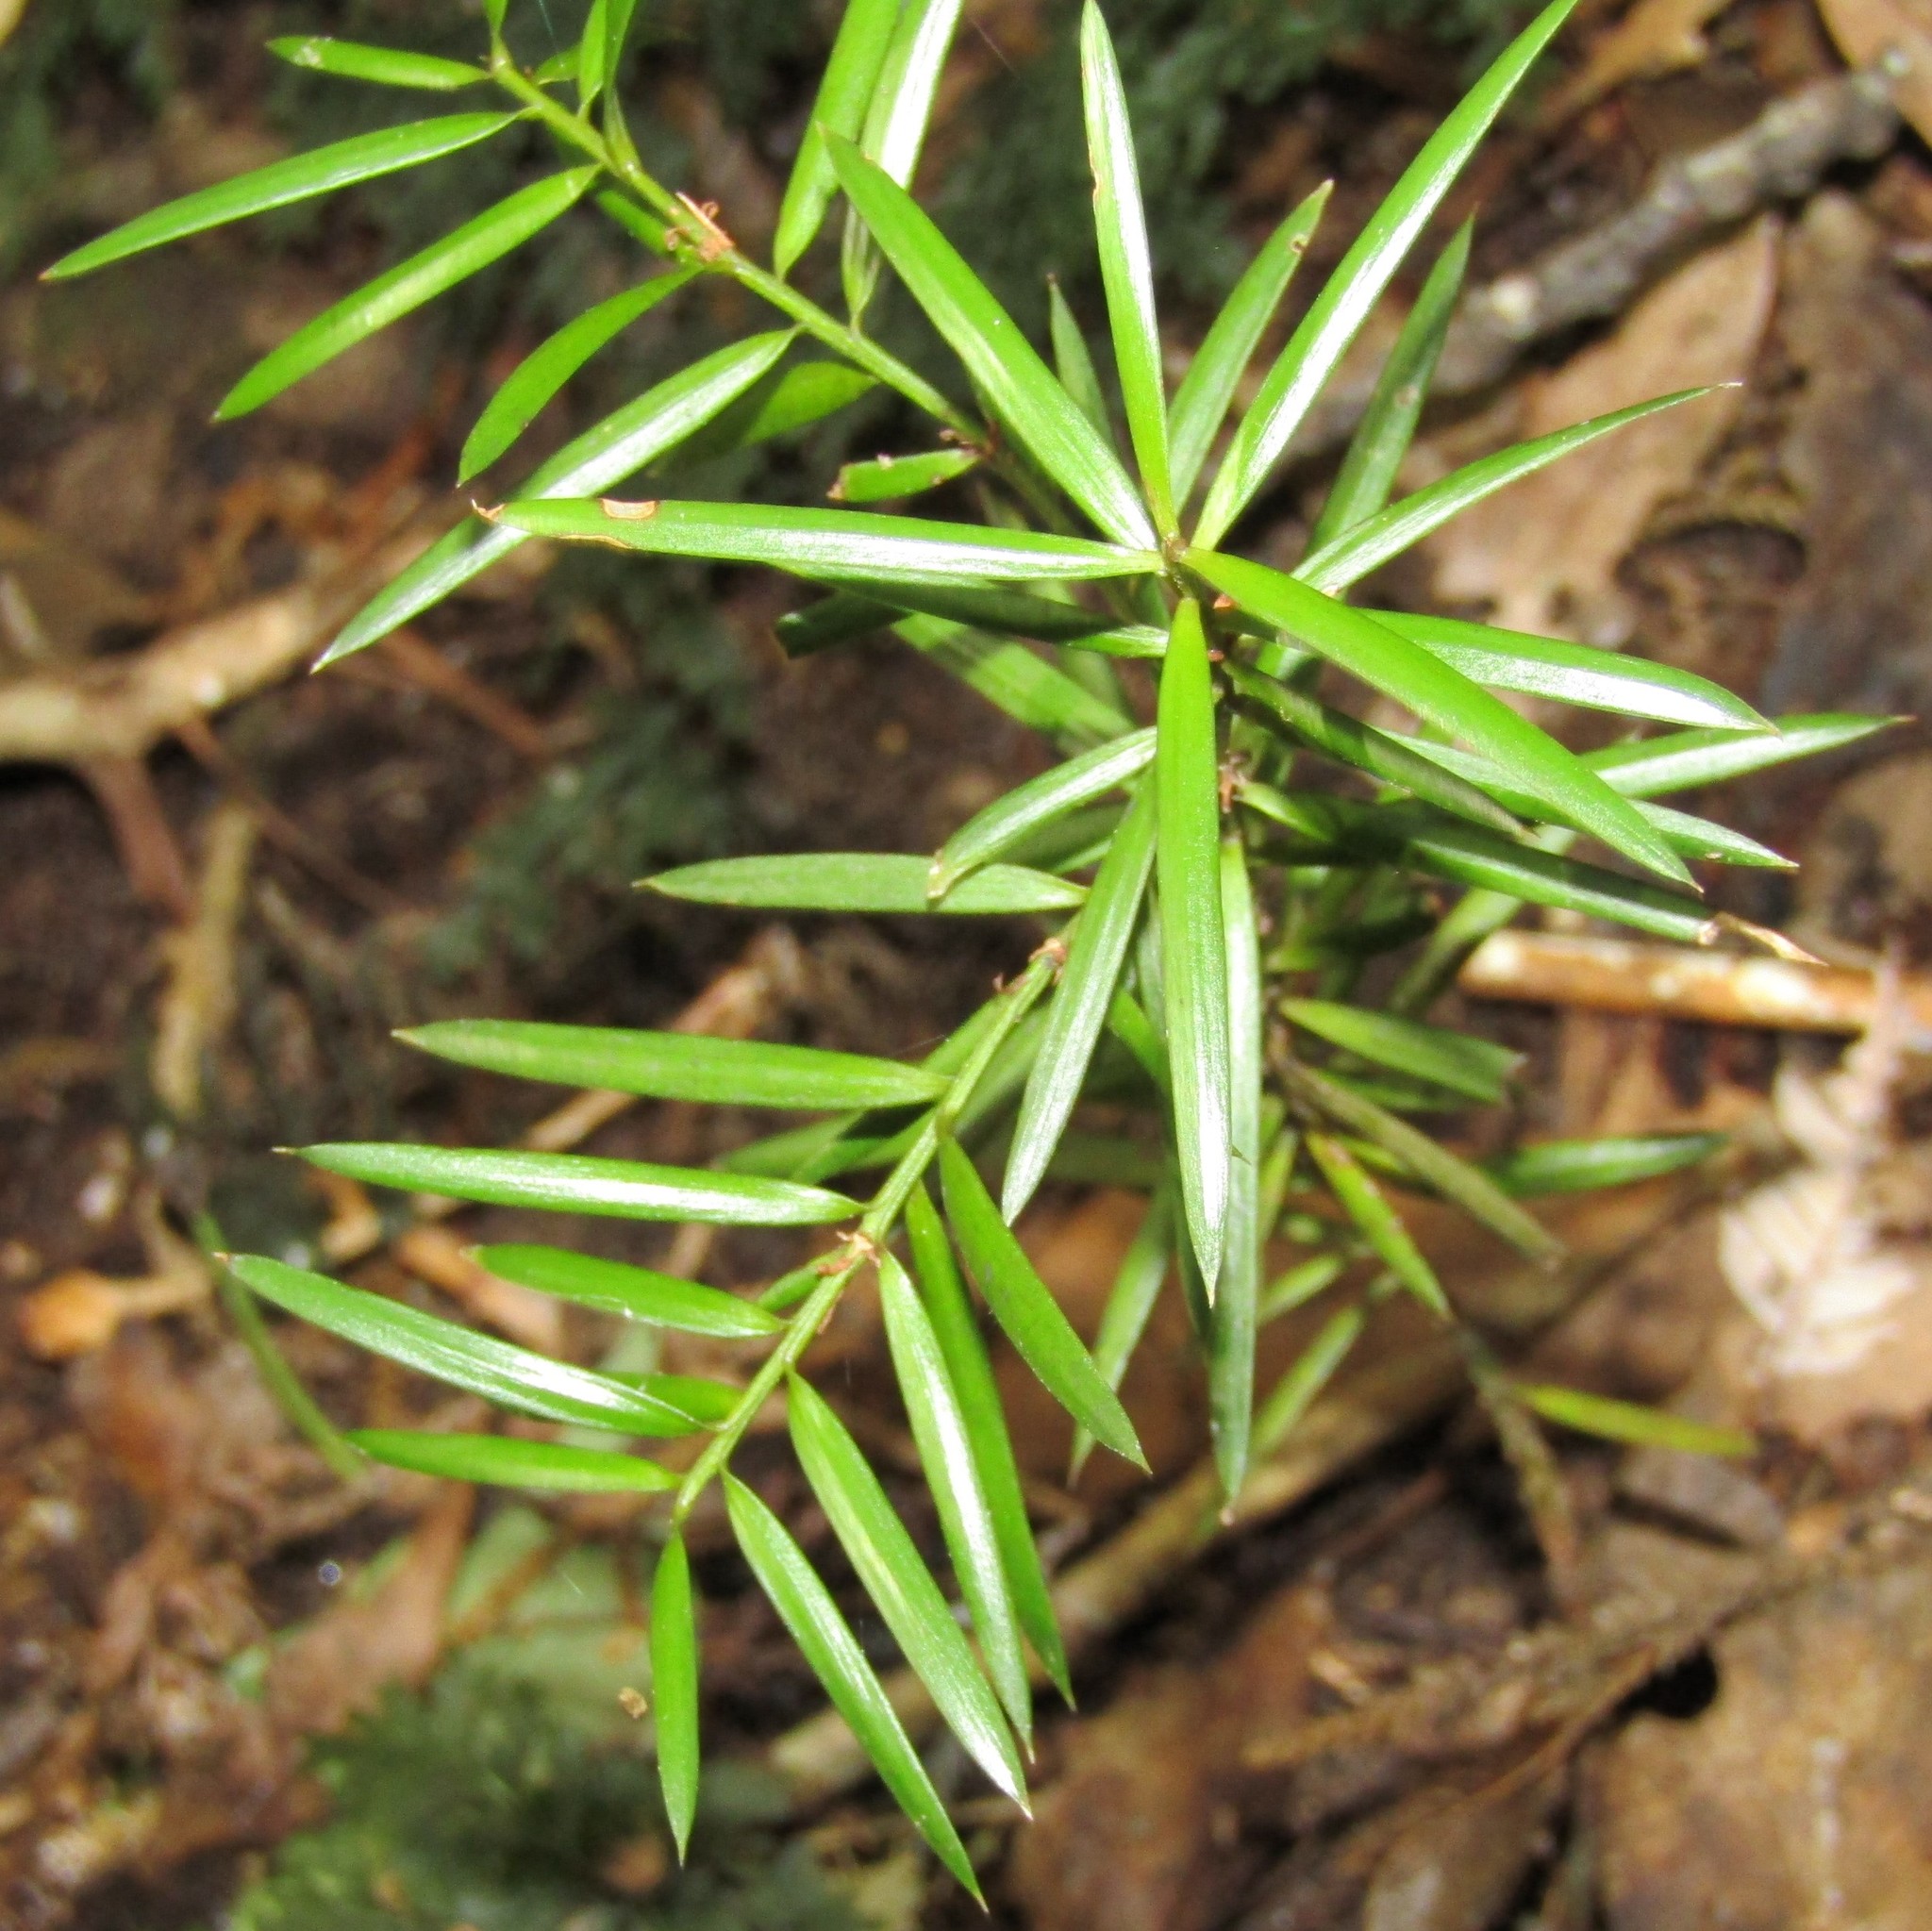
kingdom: Plantae
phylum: Tracheophyta
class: Pinopsida
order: Pinales
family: Podocarpaceae
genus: Podocarpus
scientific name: Podocarpus totara
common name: Totara
